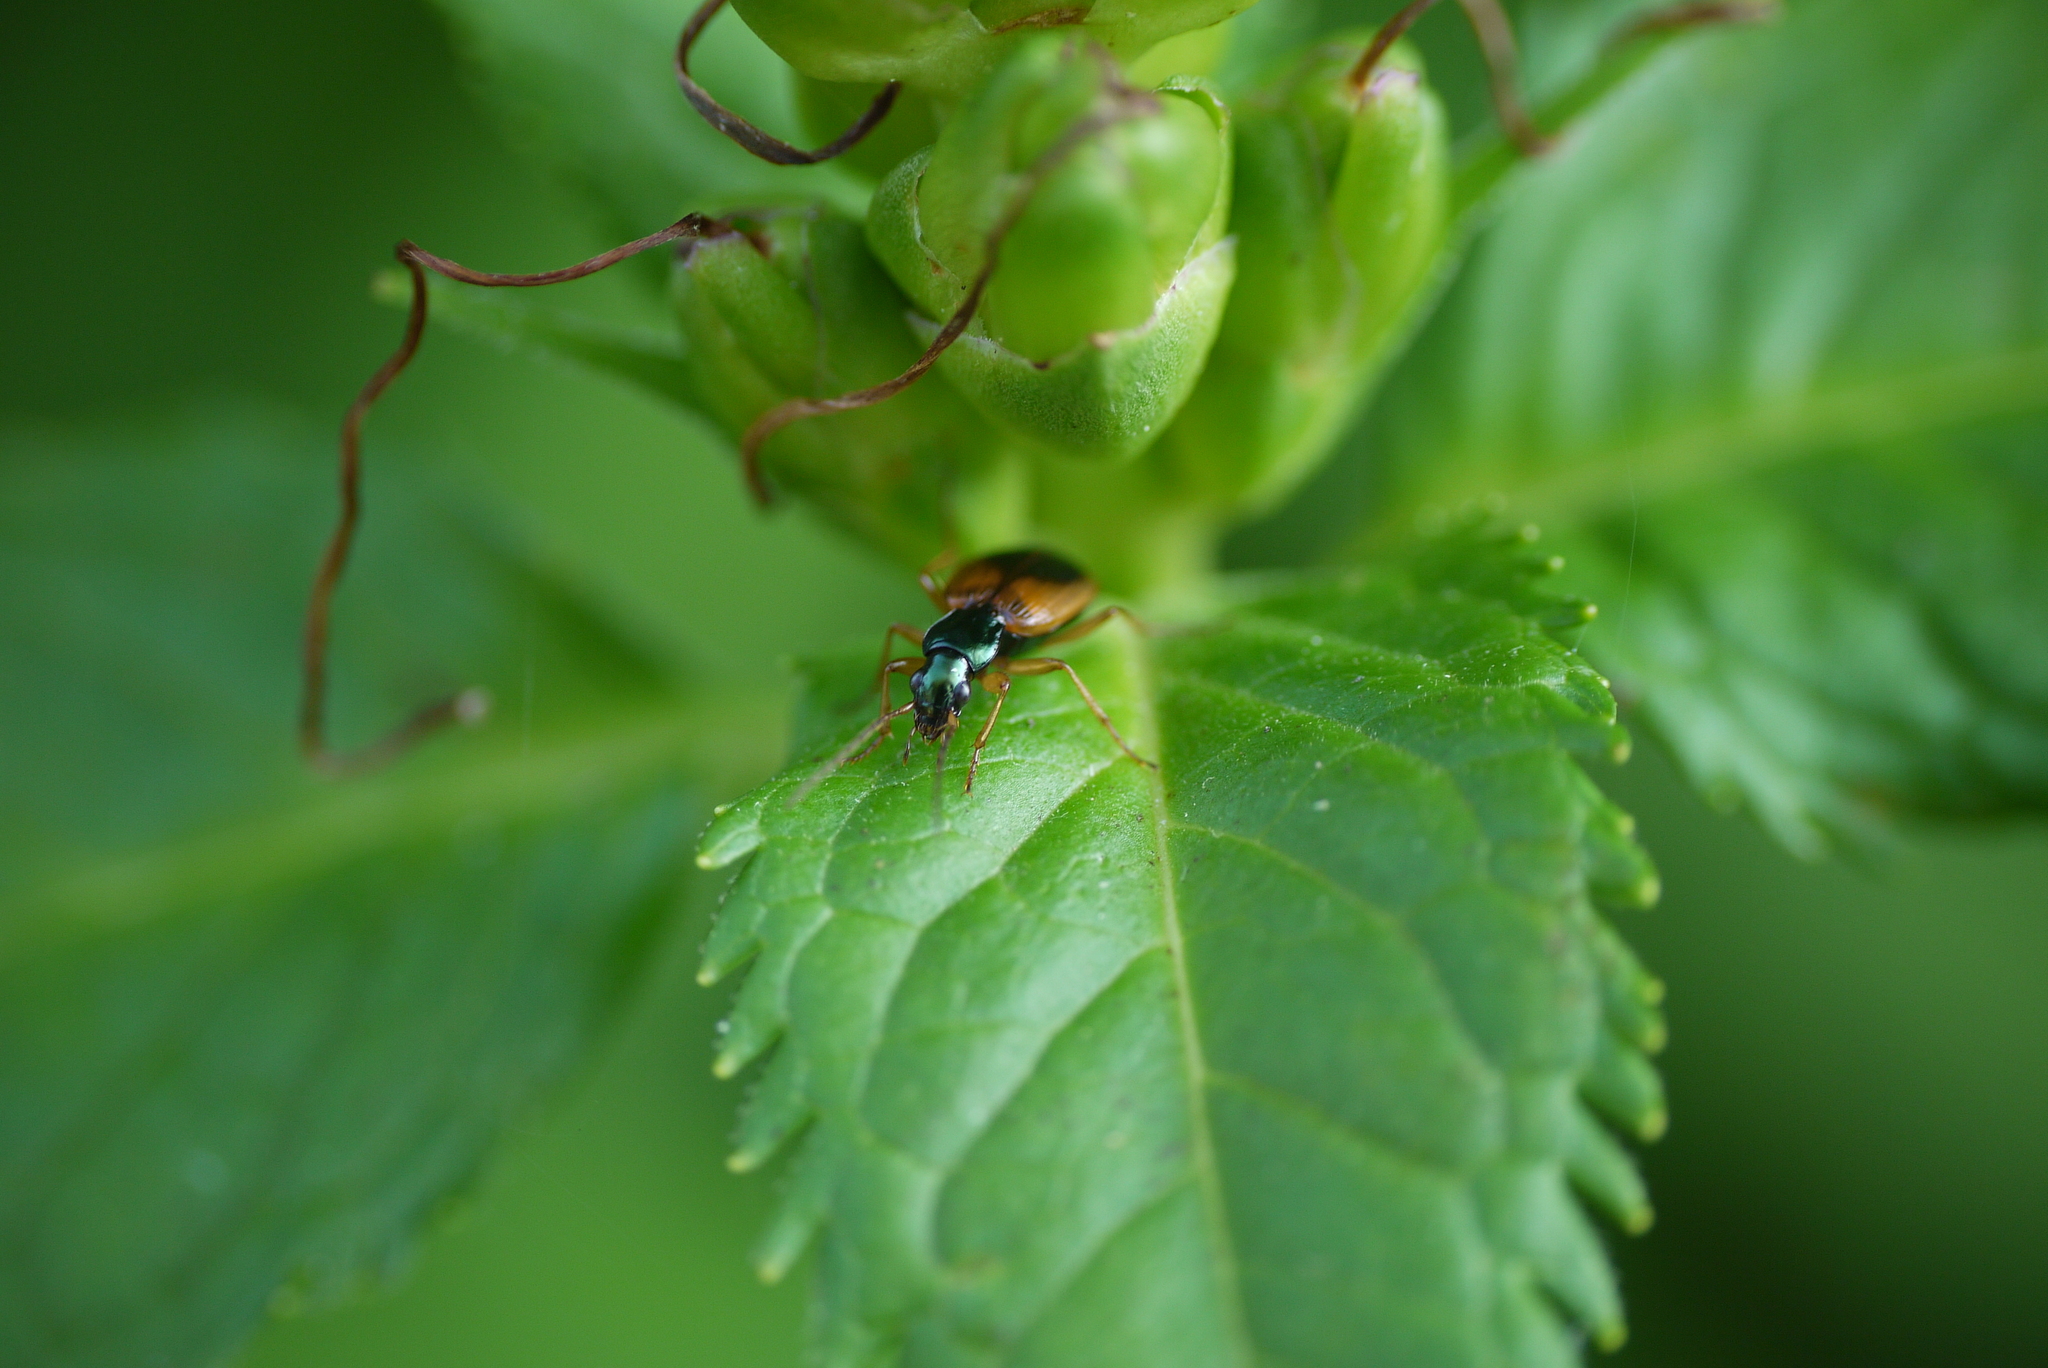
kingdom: Animalia
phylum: Arthropoda
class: Insecta
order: Coleoptera
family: Carabidae
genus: Anchomenus
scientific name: Anchomenus dorsalis
